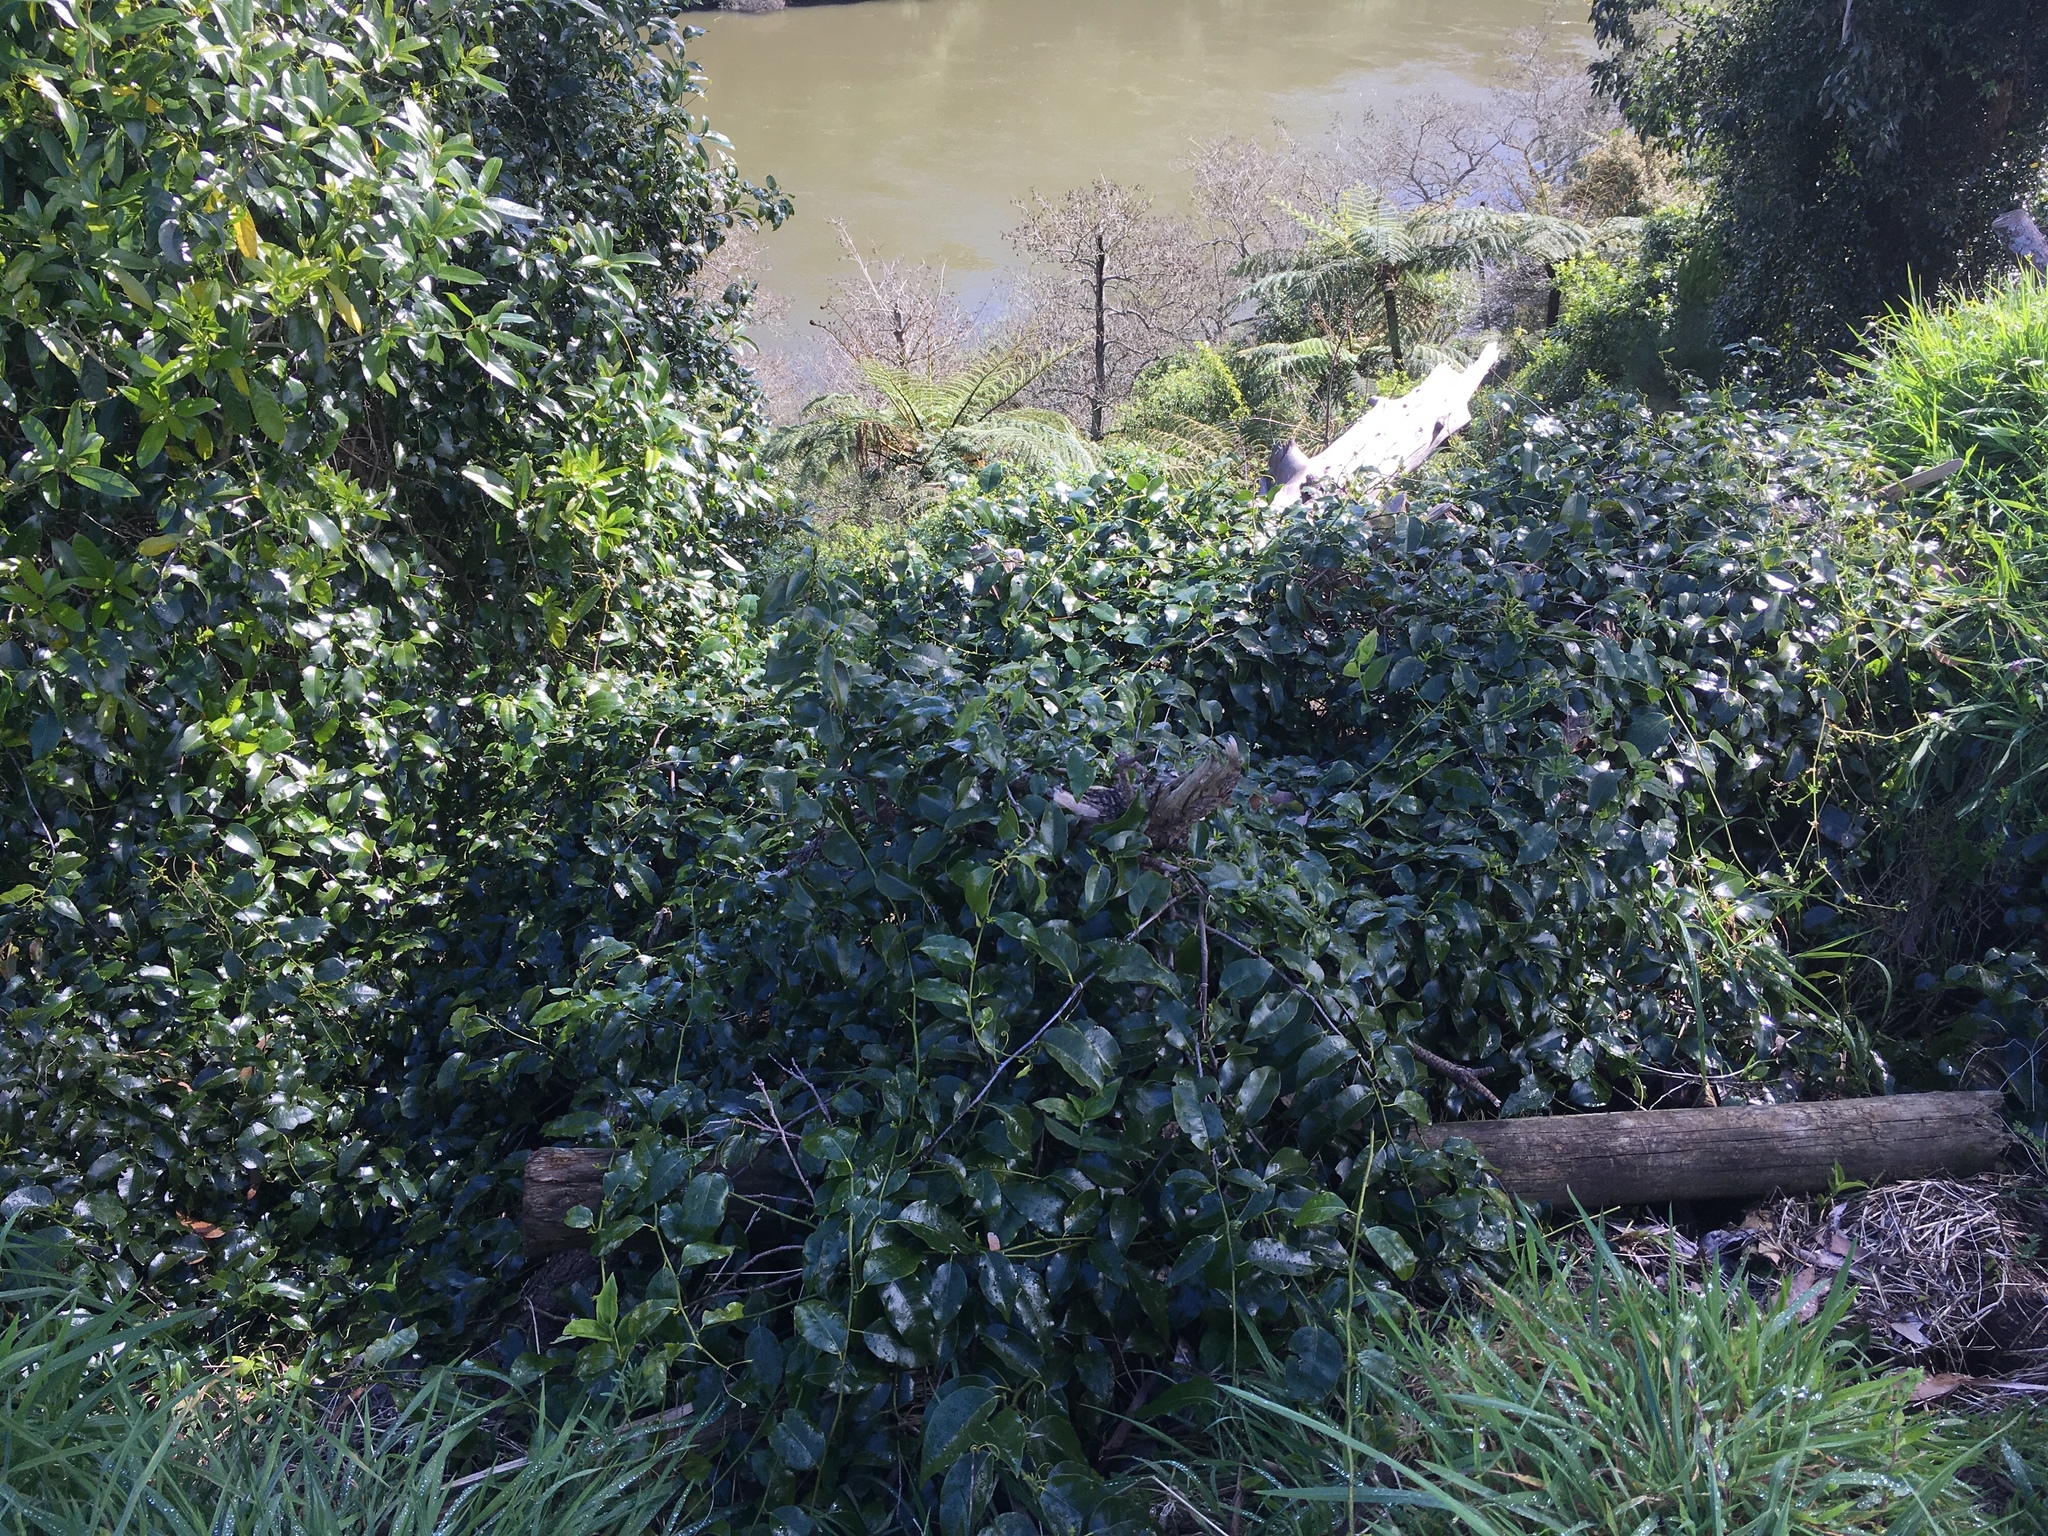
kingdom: Plantae
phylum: Tracheophyta
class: Magnoliopsida
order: Malpighiales
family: Passifloraceae
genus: Passiflora
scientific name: Passiflora tetrandra
